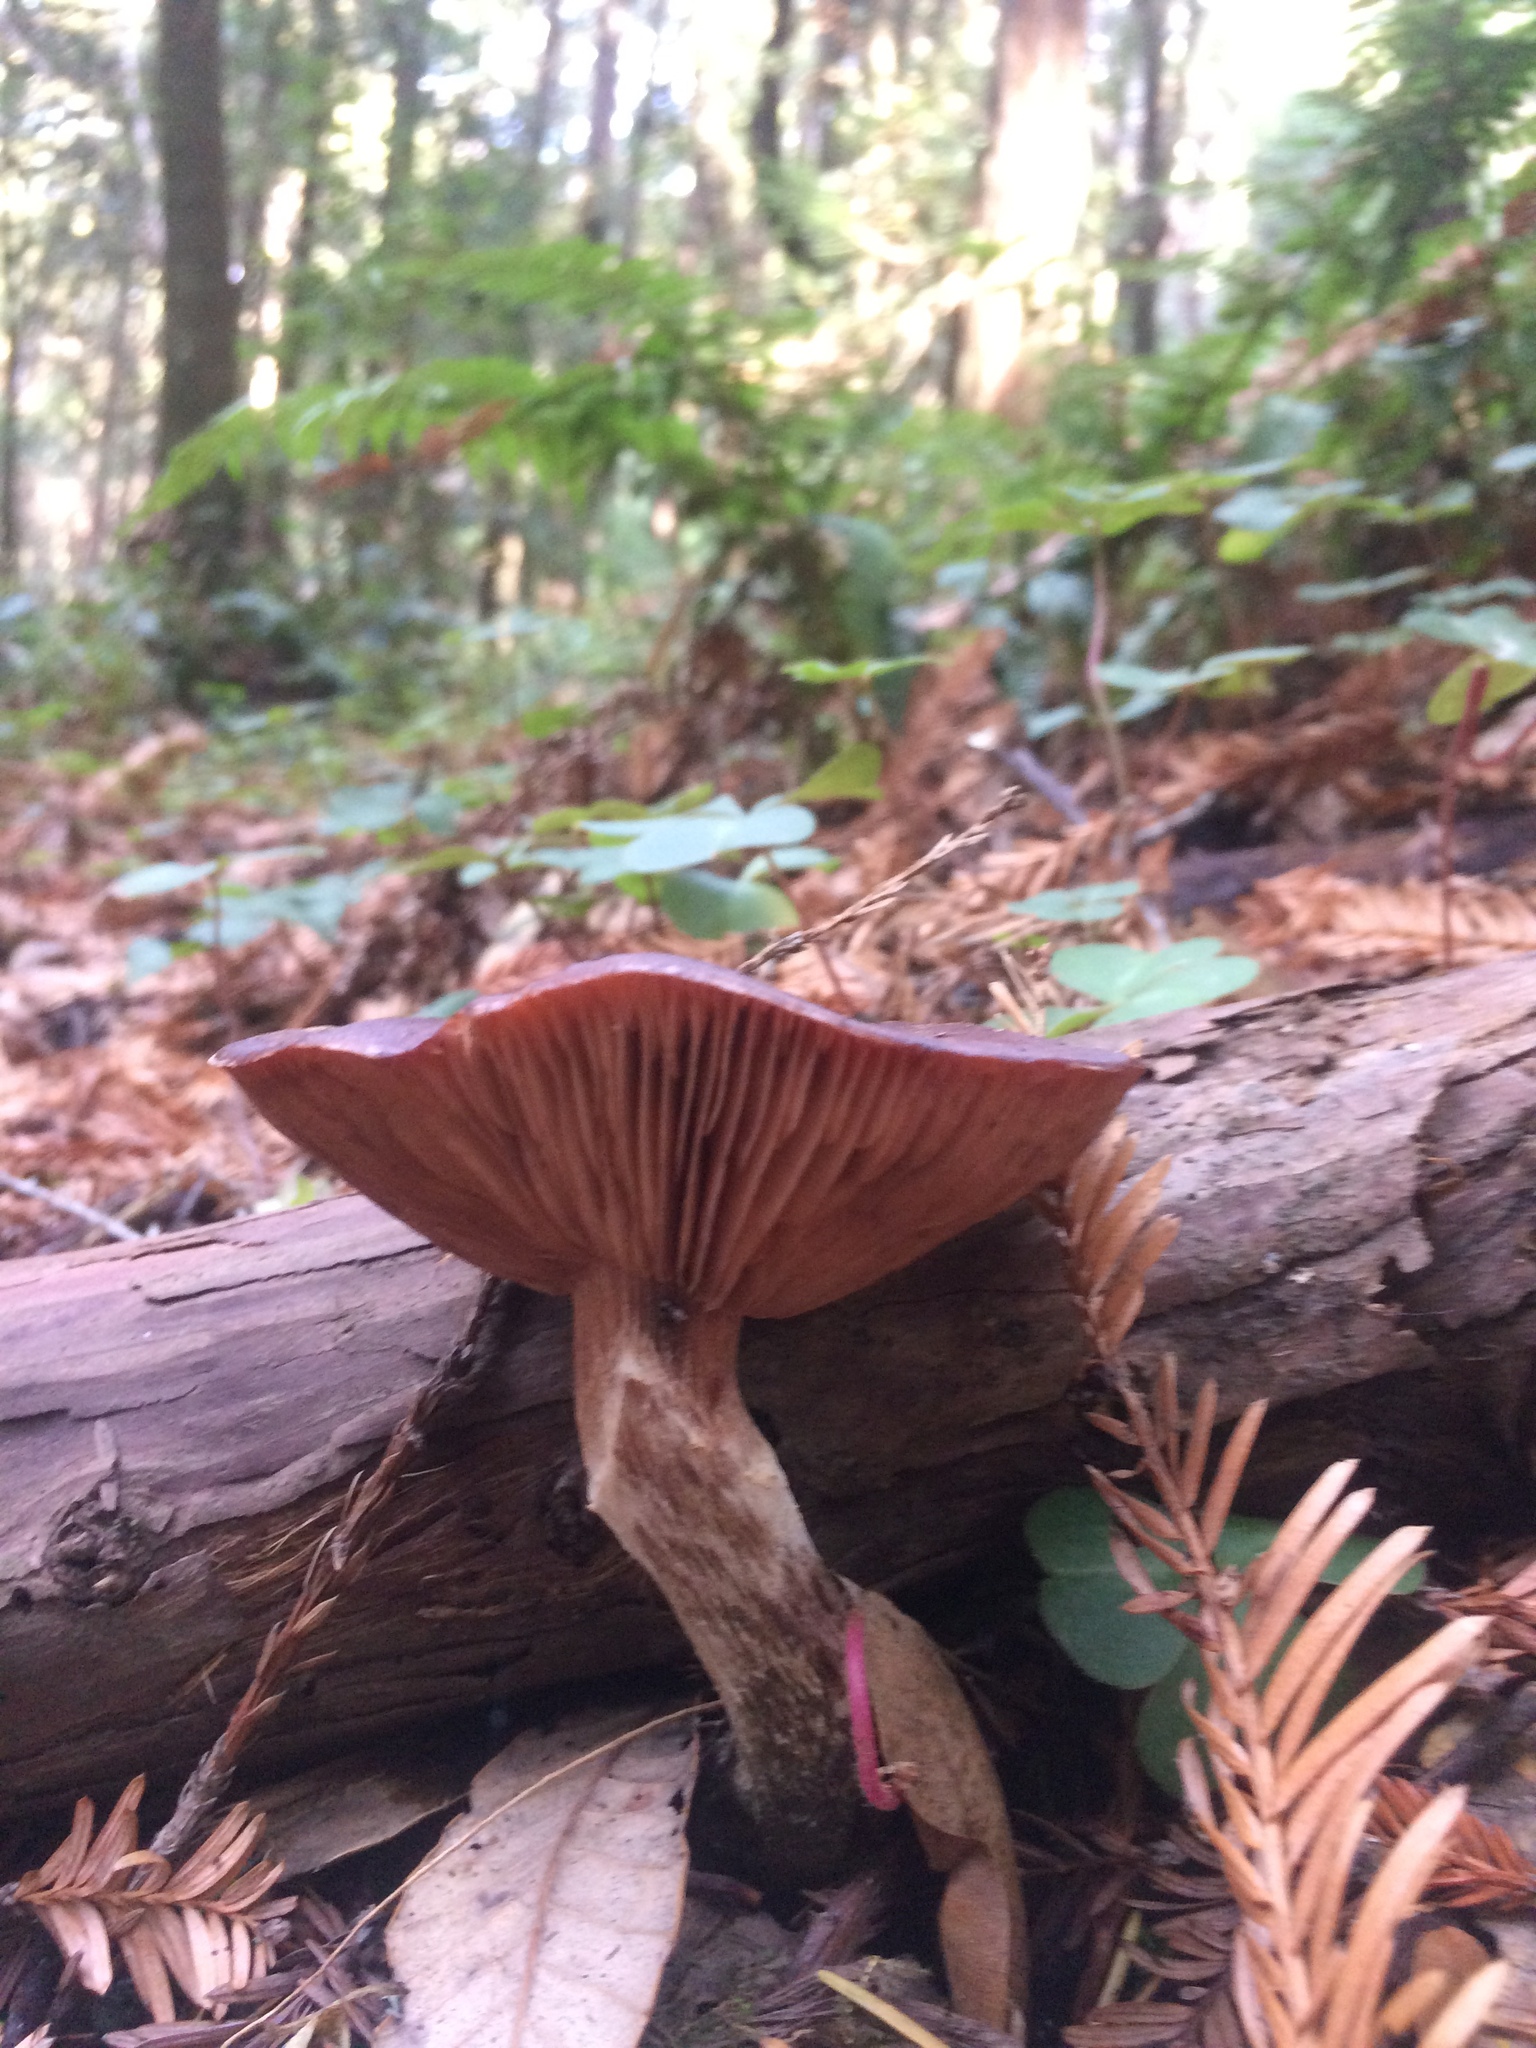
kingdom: Fungi
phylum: Basidiomycota
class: Agaricomycetes
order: Agaricales
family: Physalacriaceae
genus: Armillaria
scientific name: Armillaria gallica
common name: Bulbous honey fungus
